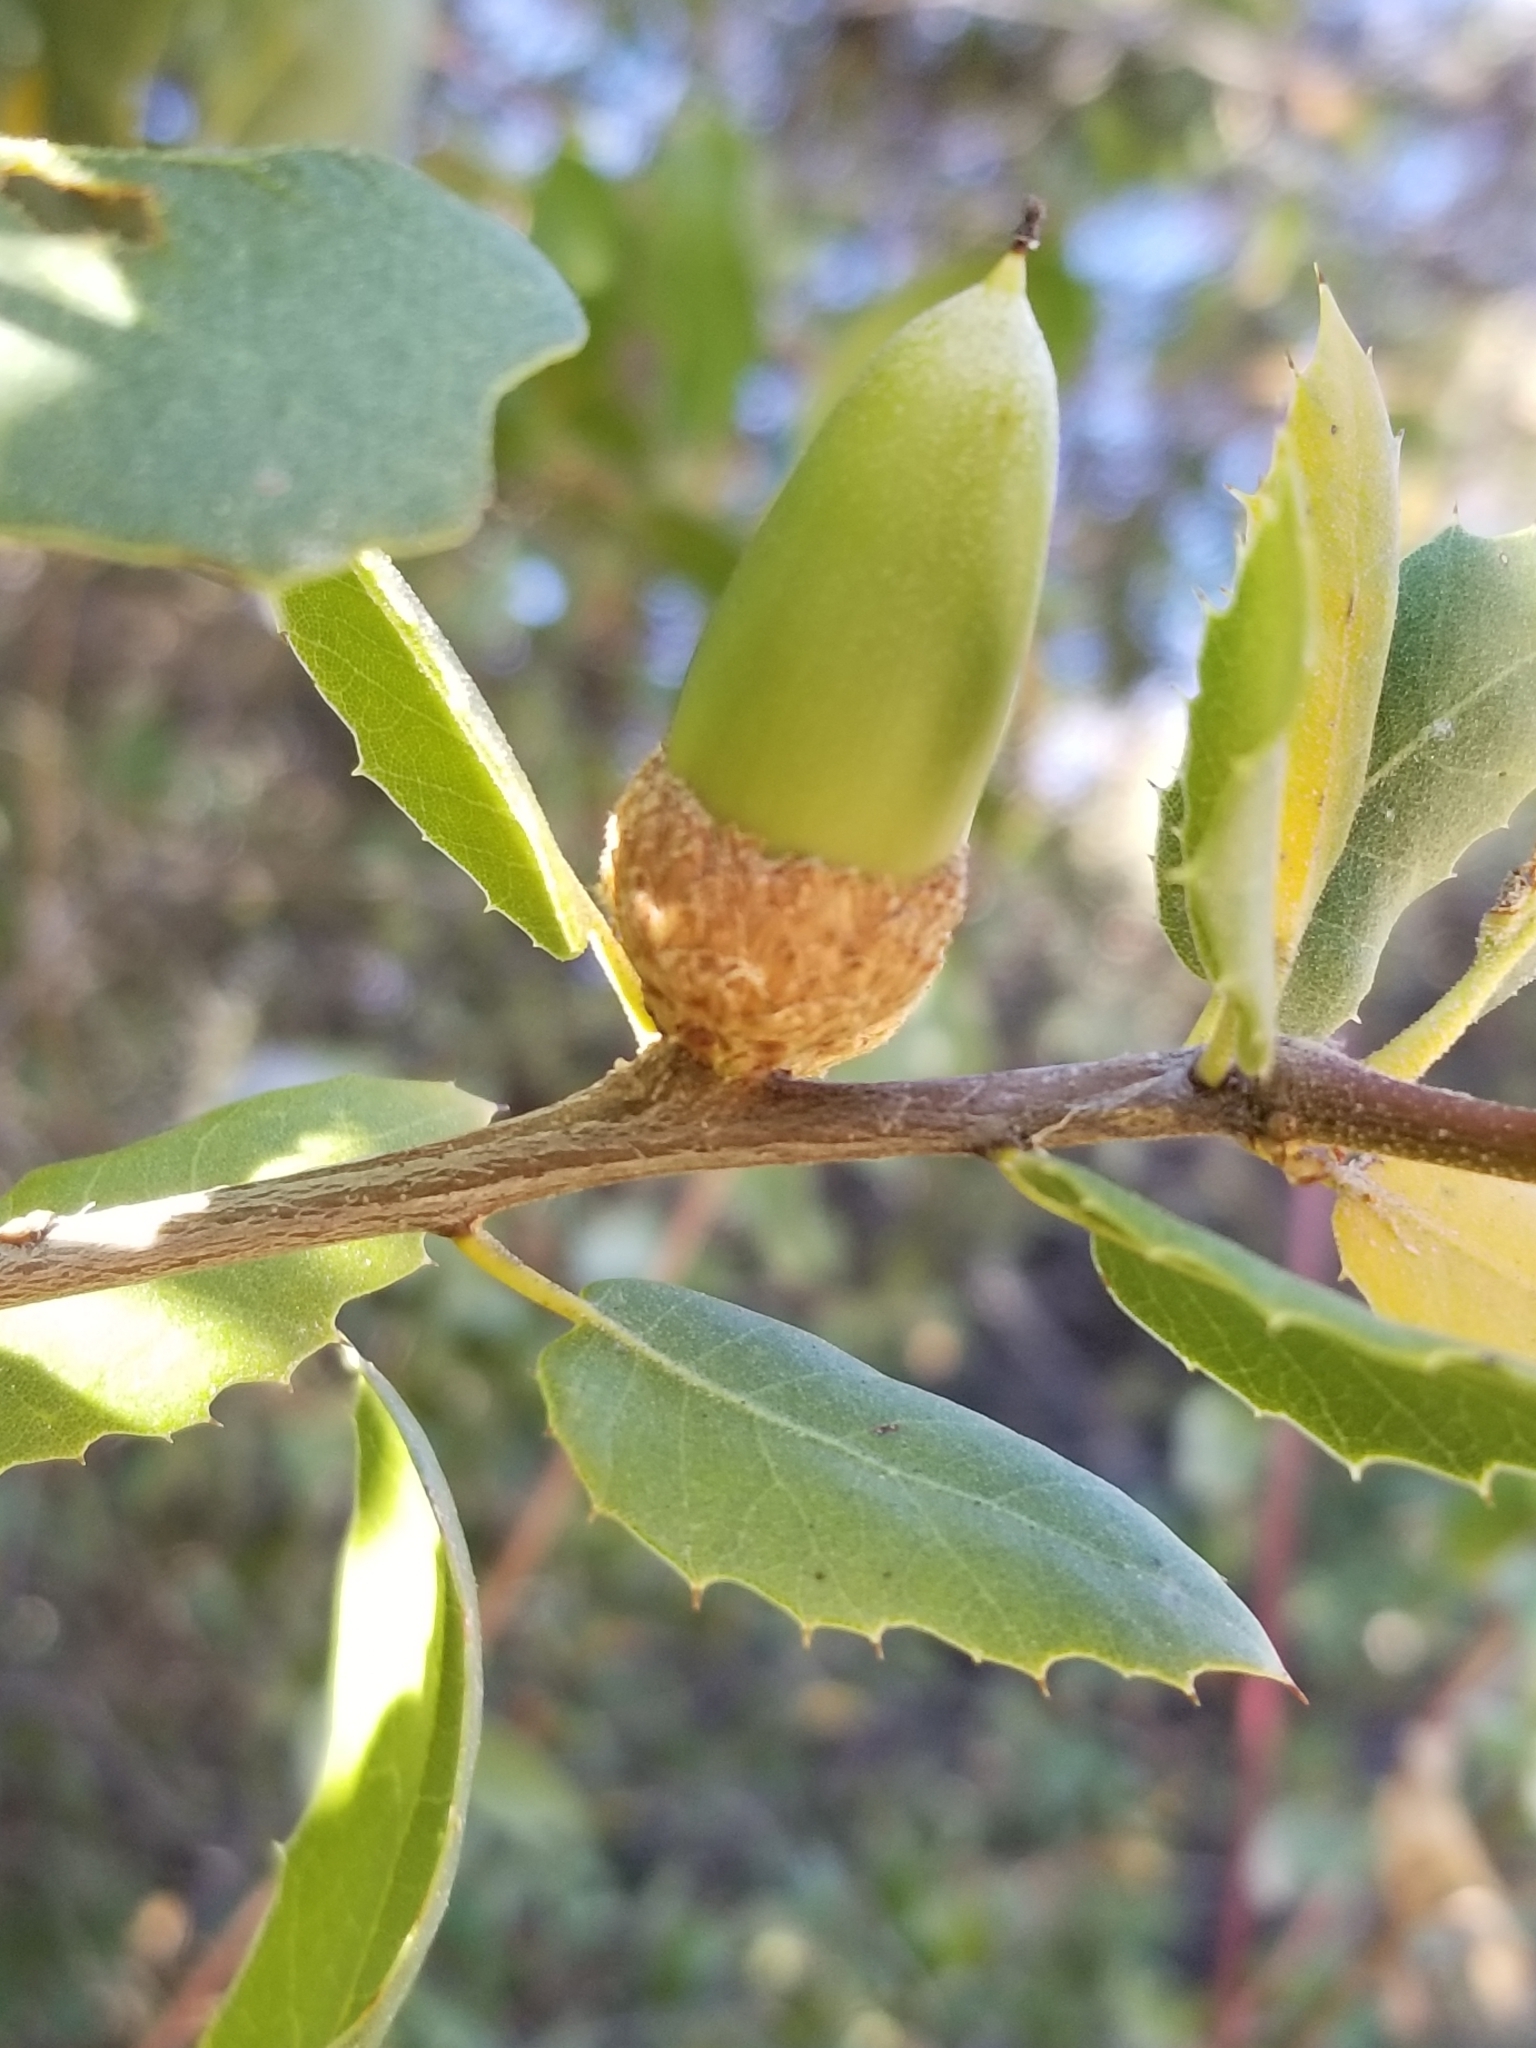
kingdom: Plantae
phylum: Tracheophyta
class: Magnoliopsida
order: Fagales
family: Fagaceae
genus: Quercus
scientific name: Quercus wislizeni
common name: Interior live oak
